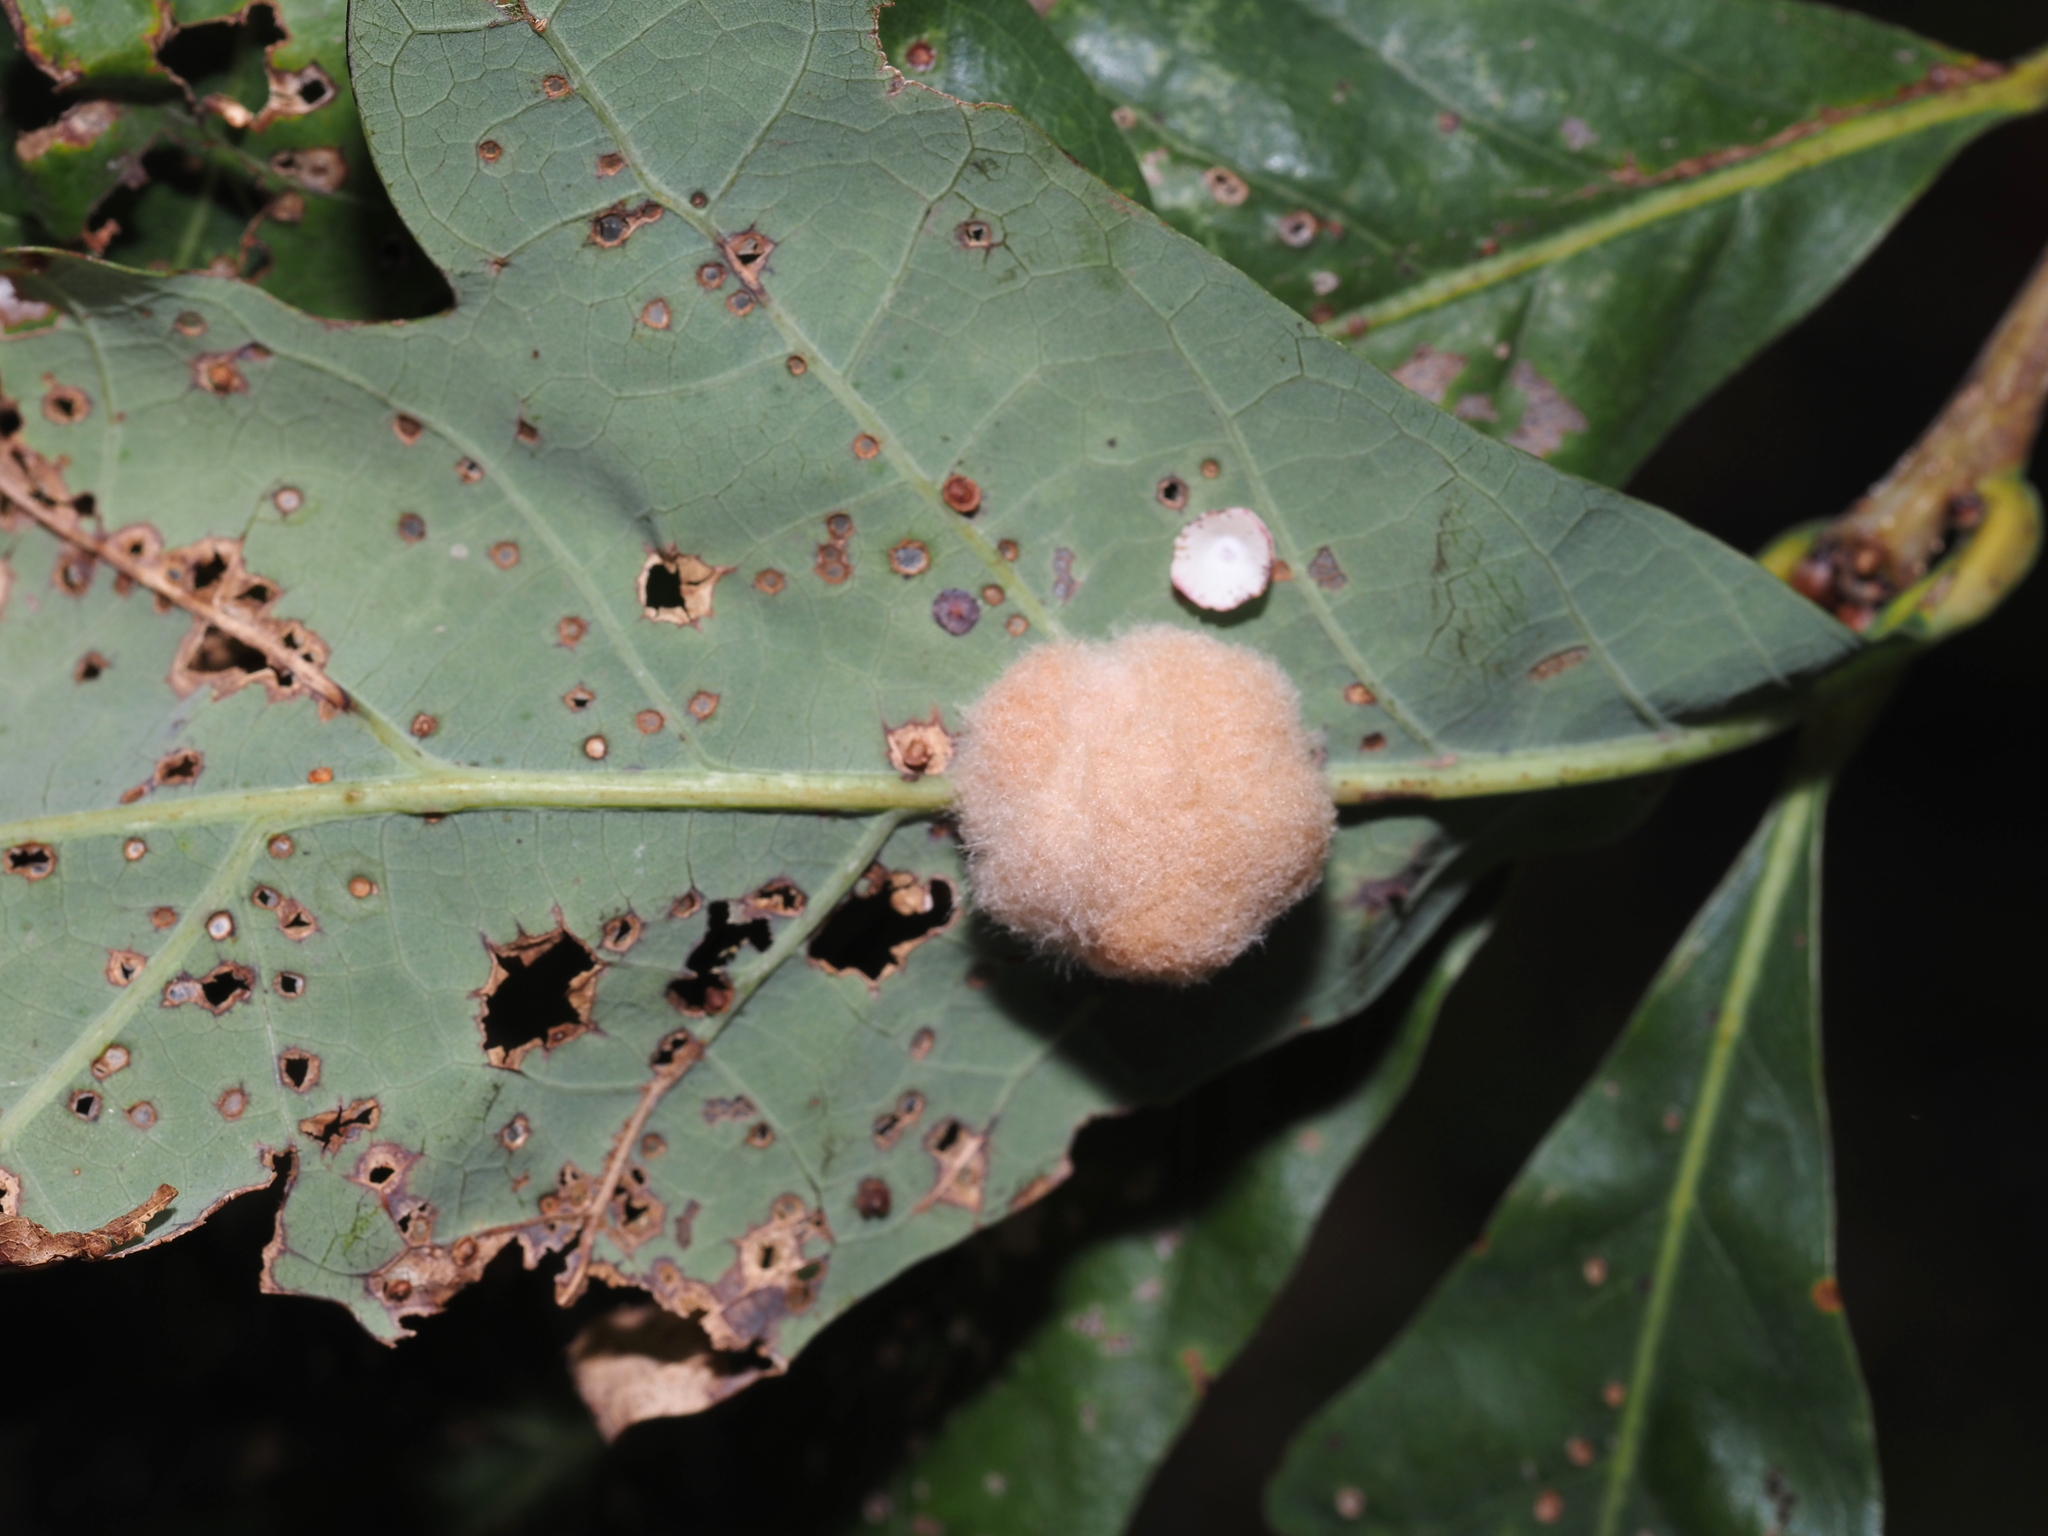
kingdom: Animalia
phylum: Arthropoda
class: Insecta
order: Hymenoptera
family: Cynipidae
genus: Andricus
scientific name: Andricus quercusflocci
